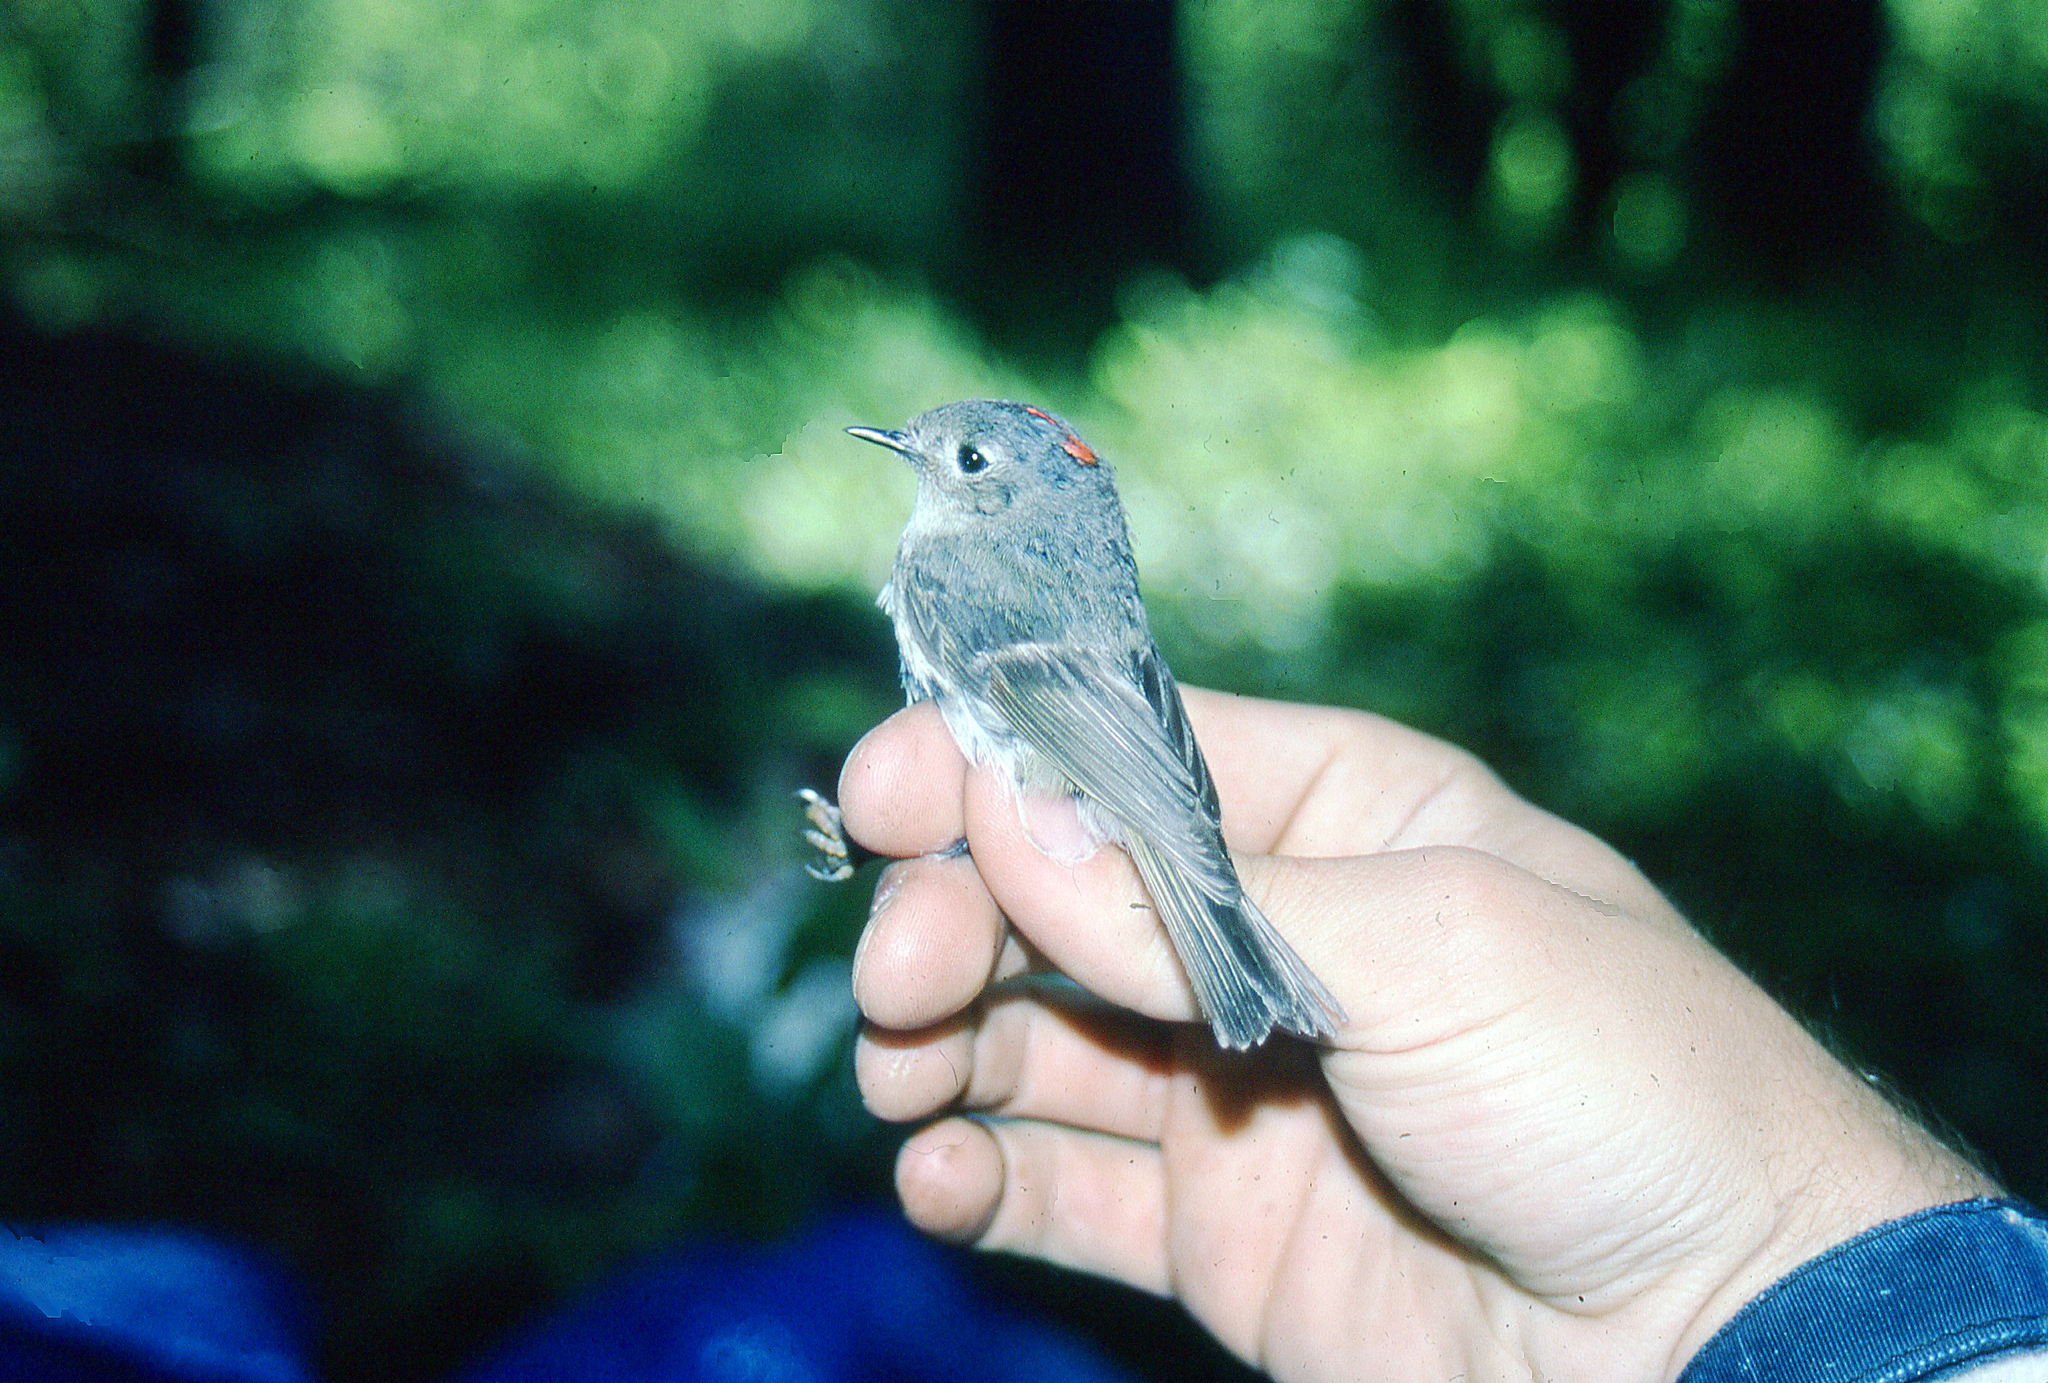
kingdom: Animalia
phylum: Chordata
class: Aves
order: Passeriformes
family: Regulidae
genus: Regulus
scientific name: Regulus calendula
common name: Ruby-crowned kinglet
